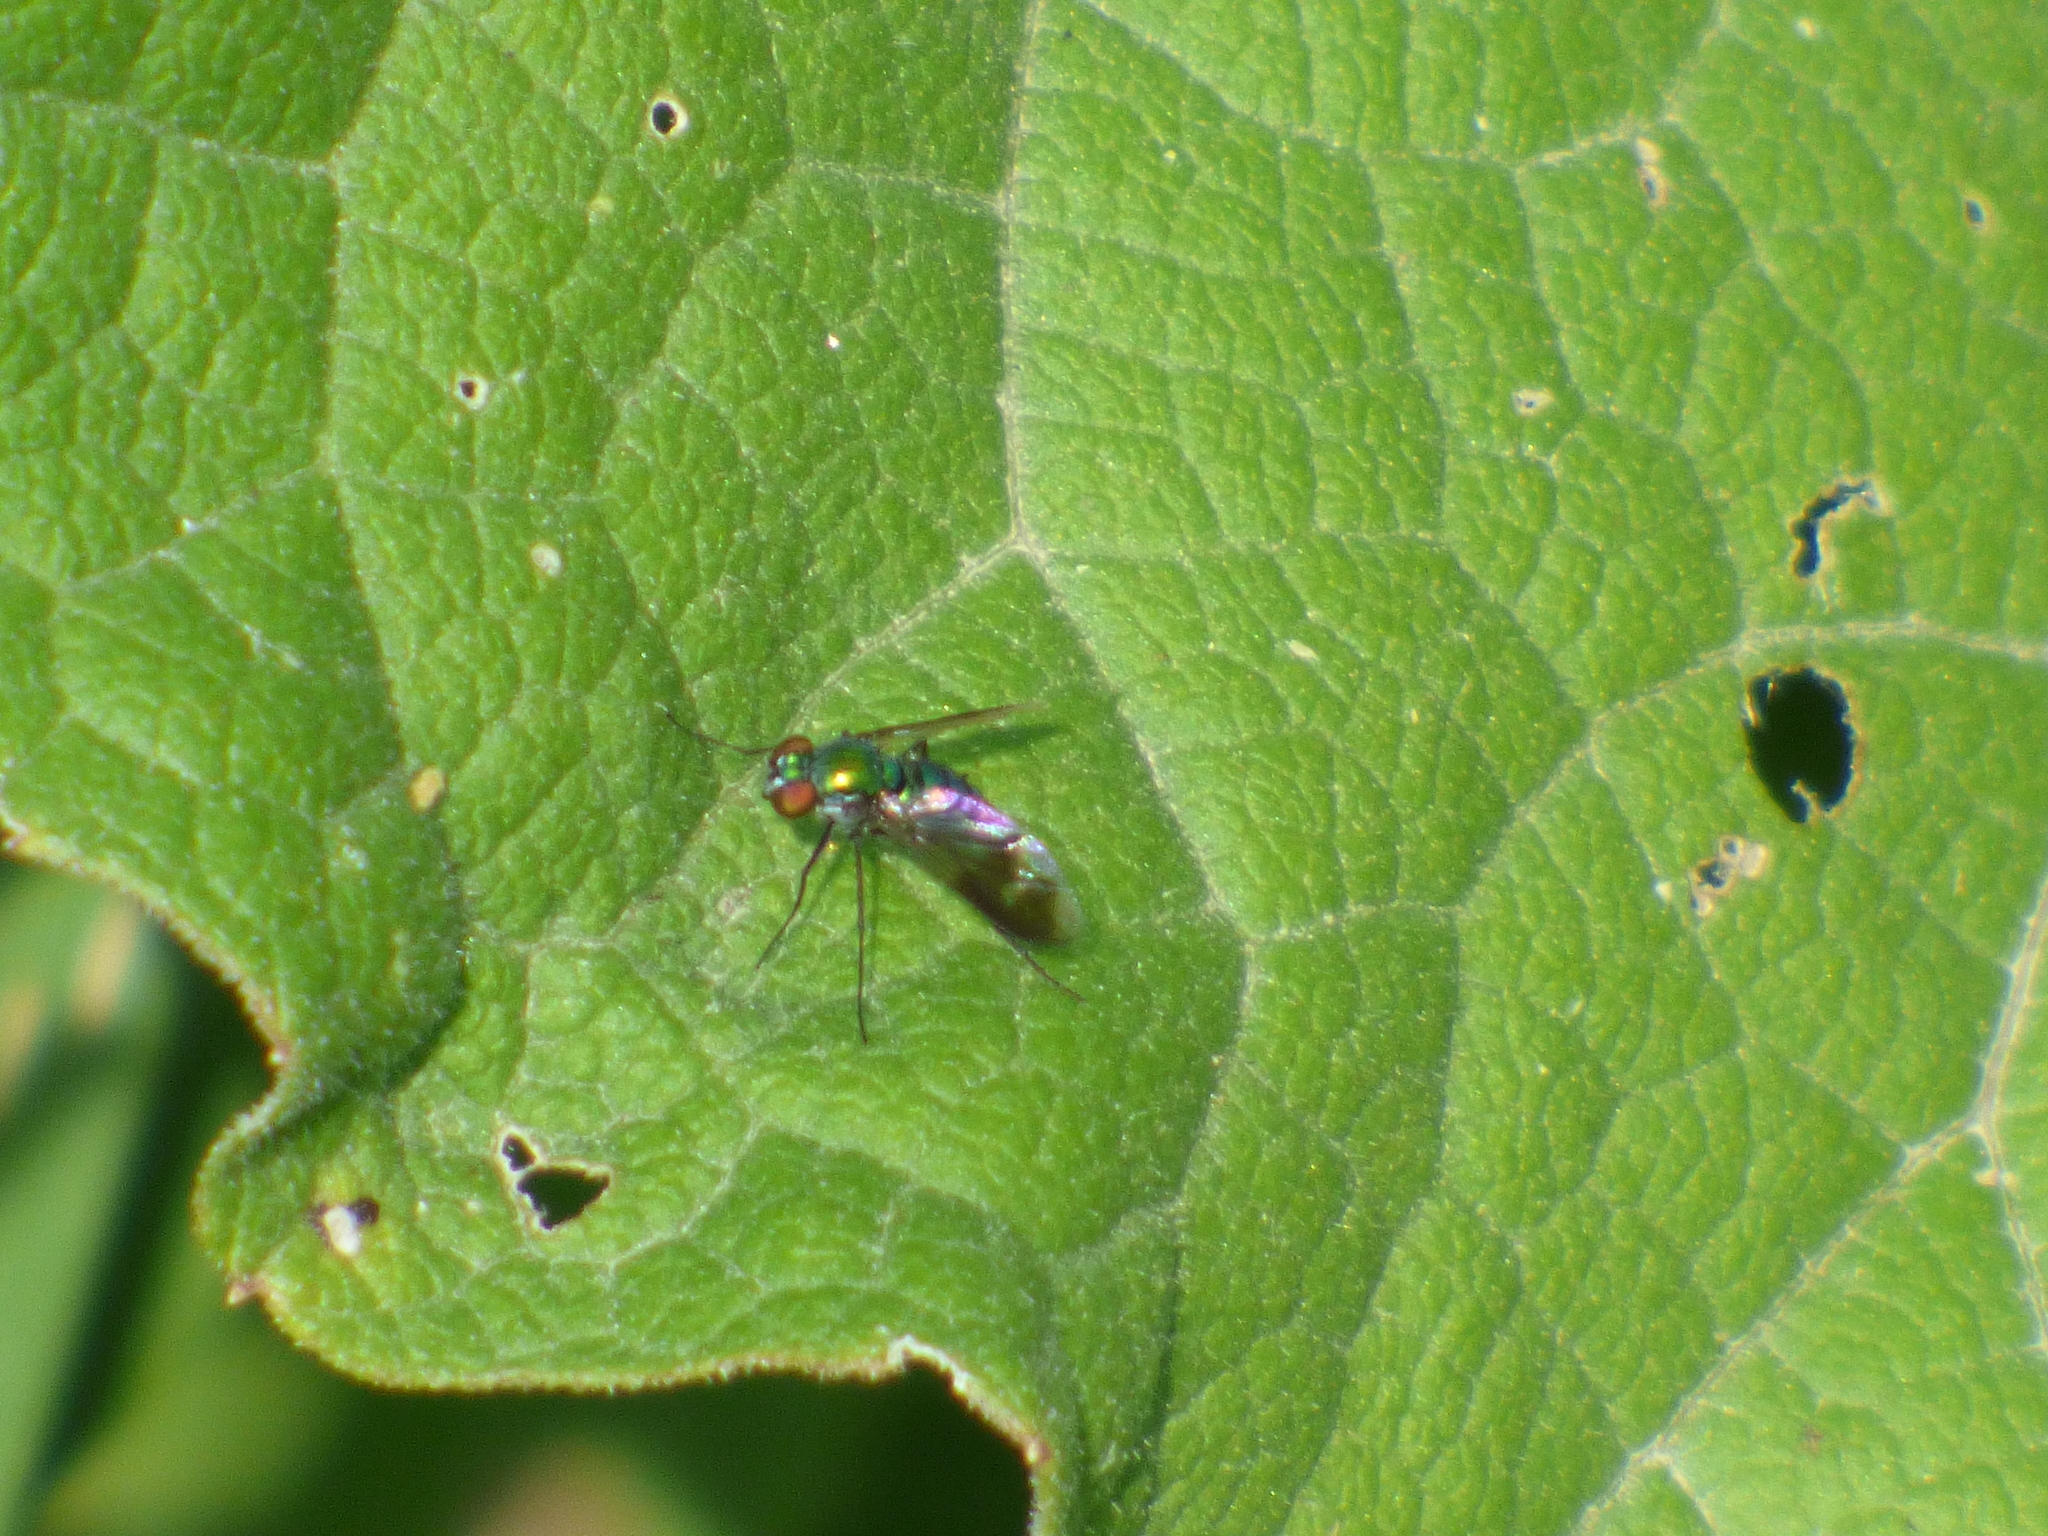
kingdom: Animalia
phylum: Arthropoda
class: Insecta
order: Diptera
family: Dolichopodidae
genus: Condylostylus
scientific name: Condylostylus patibulatus
